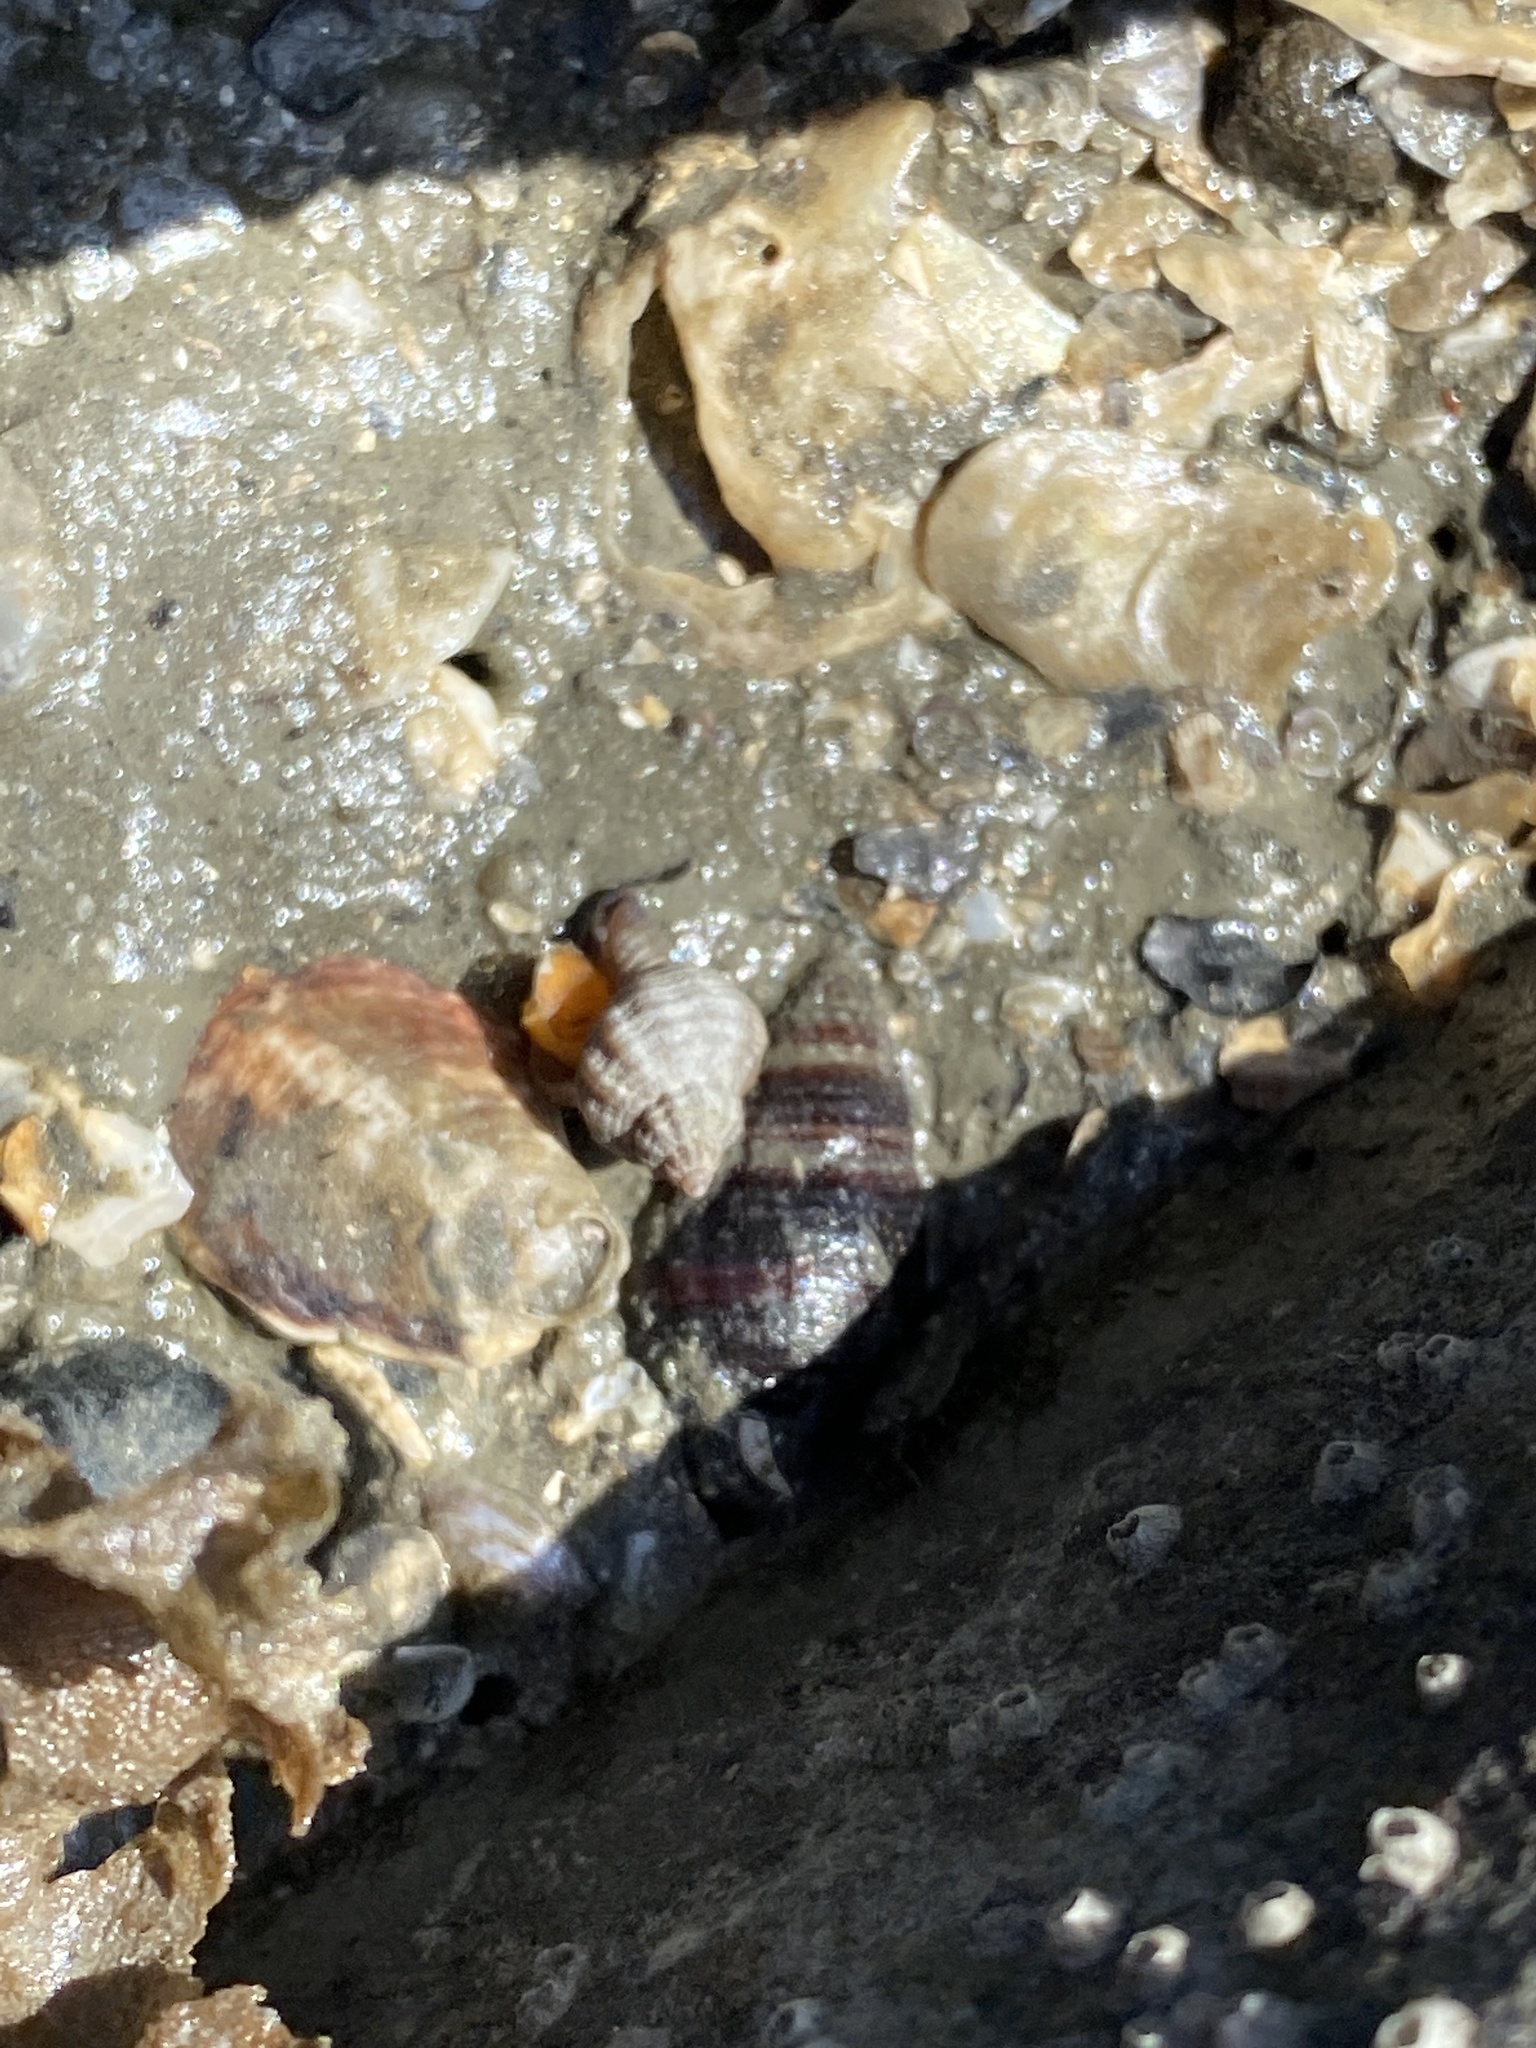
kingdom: Animalia
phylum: Mollusca
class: Gastropoda
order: Neogastropoda
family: Muricidae
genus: Urosalpinx
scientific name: Urosalpinx cinerea
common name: American sting winkle
